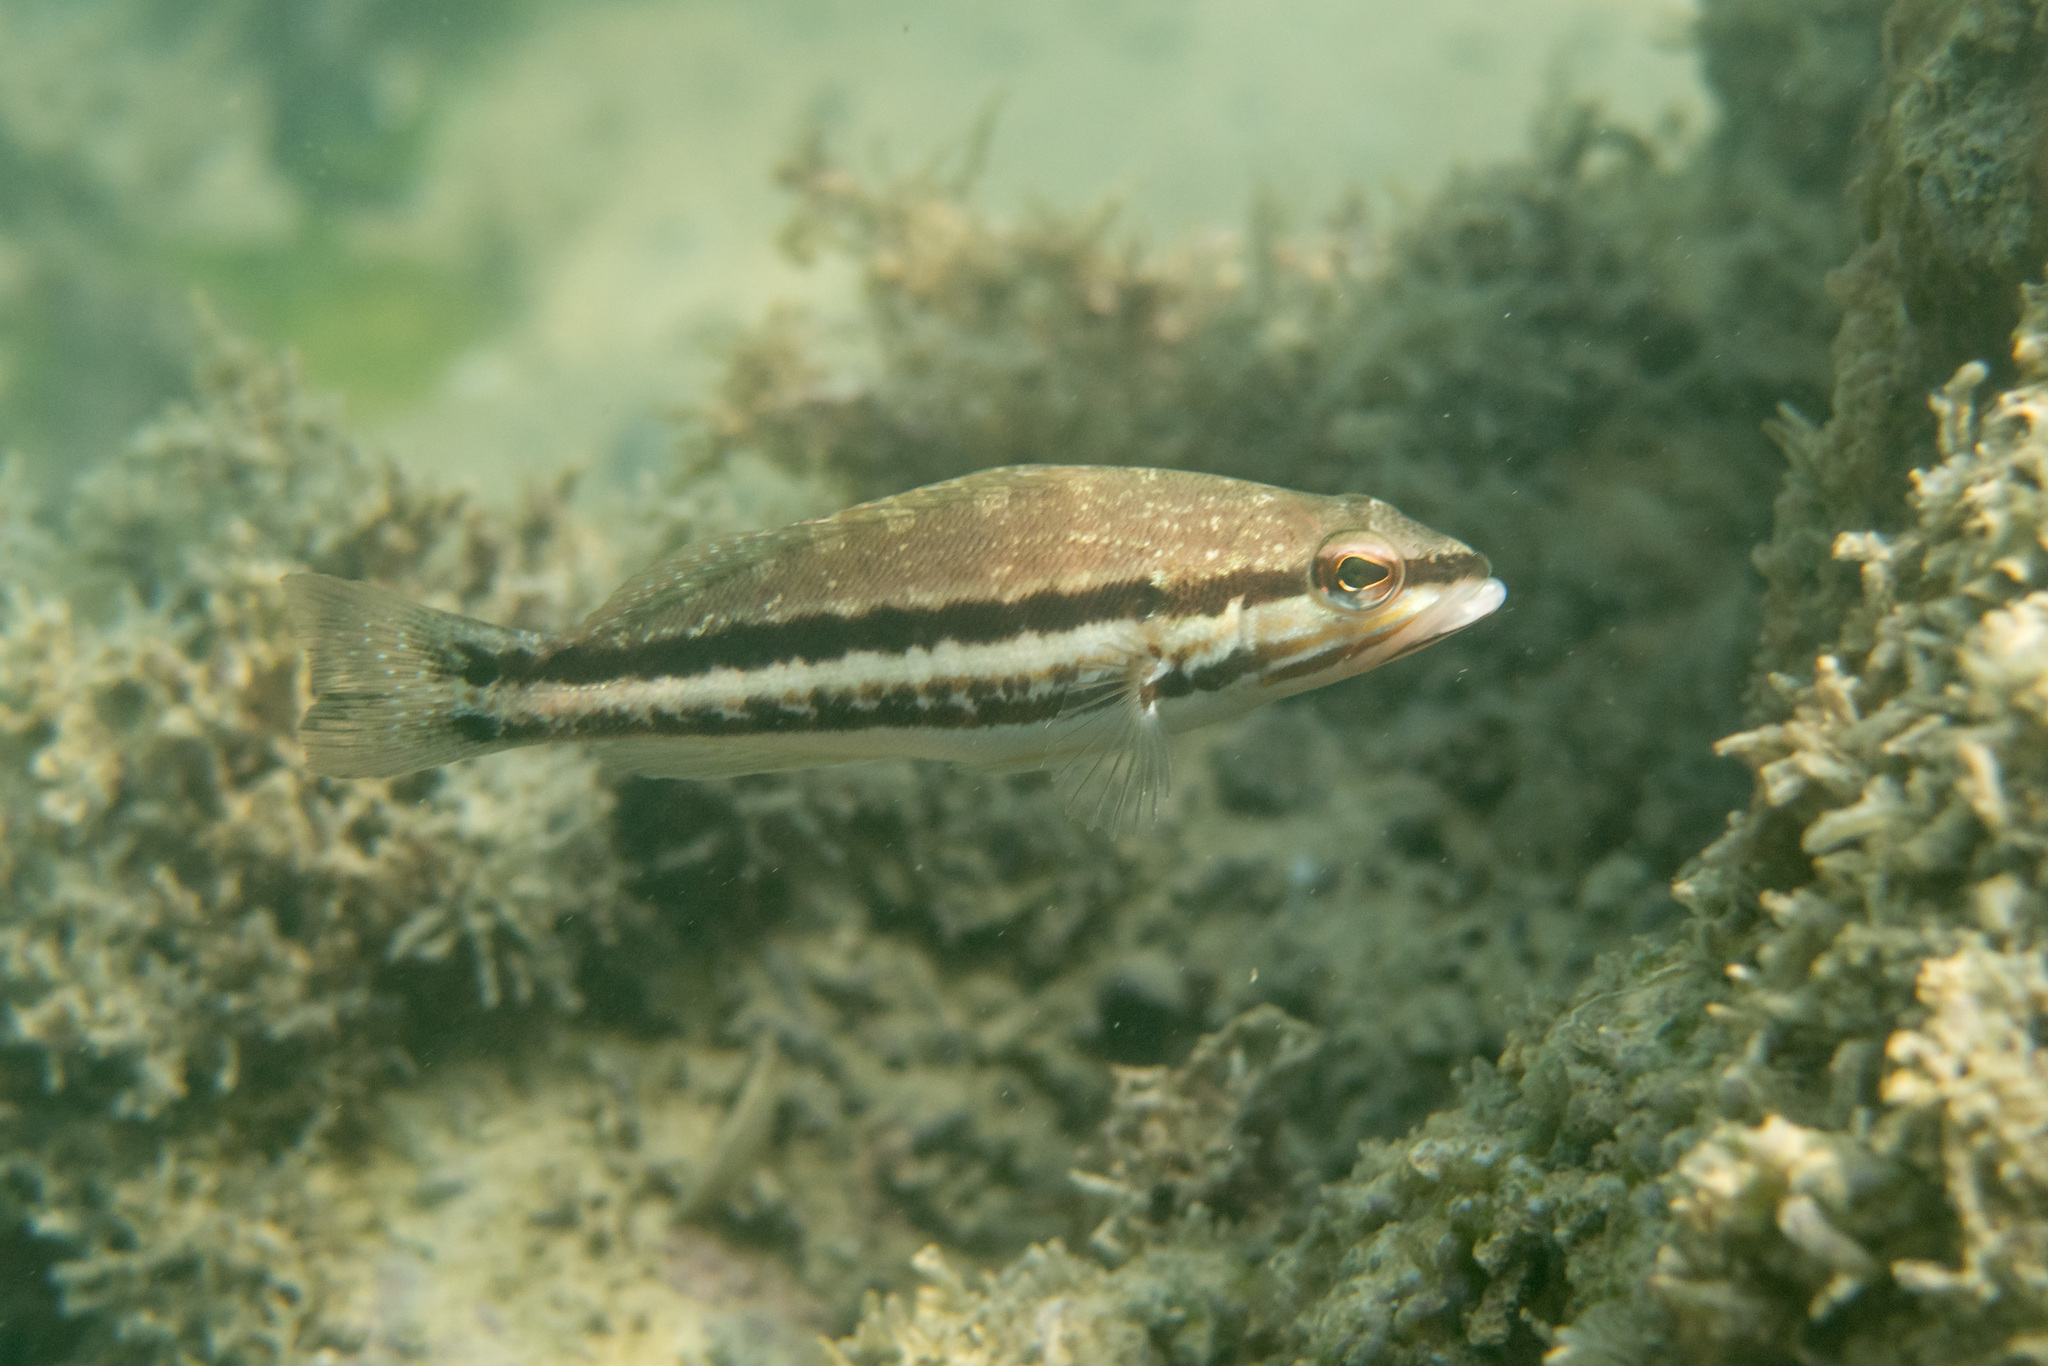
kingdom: Animalia
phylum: Chordata
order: Perciformes
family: Serranidae
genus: Serranus
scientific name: Serranus cabrilla
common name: Comber
